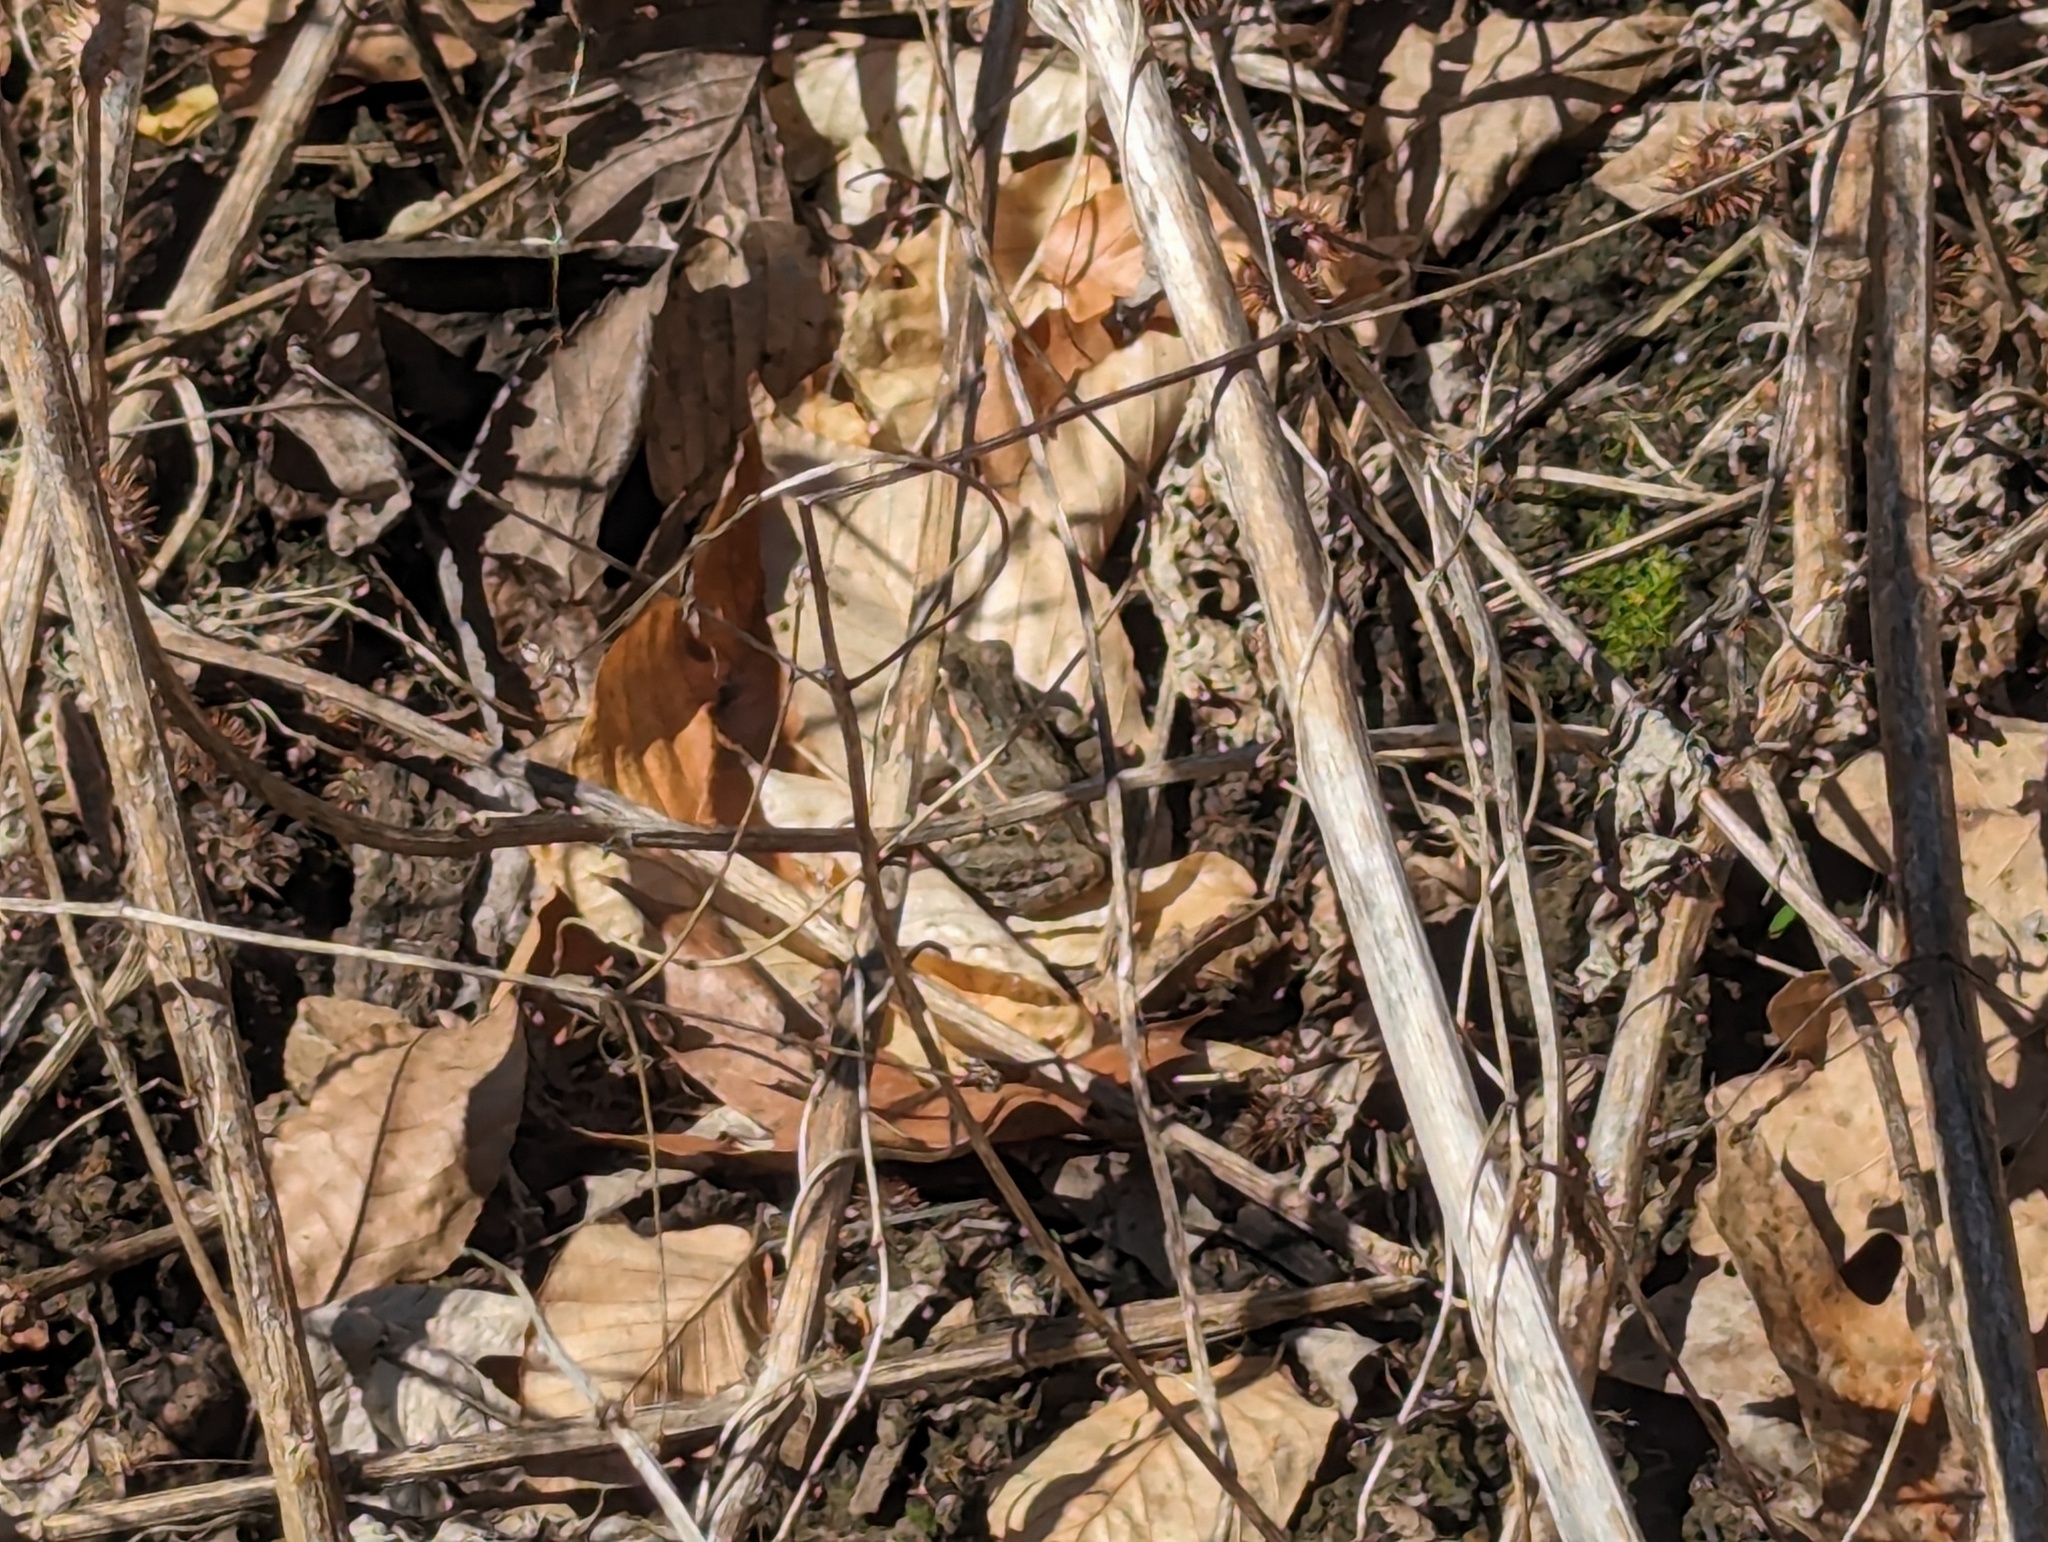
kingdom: Animalia
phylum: Chordata
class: Amphibia
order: Anura
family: Ranidae
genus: Lithobates
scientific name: Lithobates sphenocephalus
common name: Southern leopard frog
